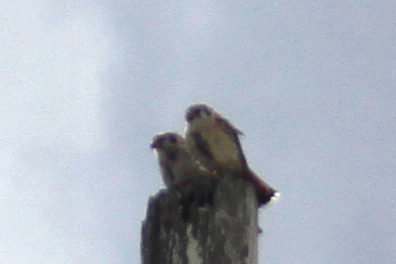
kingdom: Animalia
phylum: Chordata
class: Aves
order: Falconiformes
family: Falconidae
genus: Falco
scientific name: Falco sparverius
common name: American kestrel
